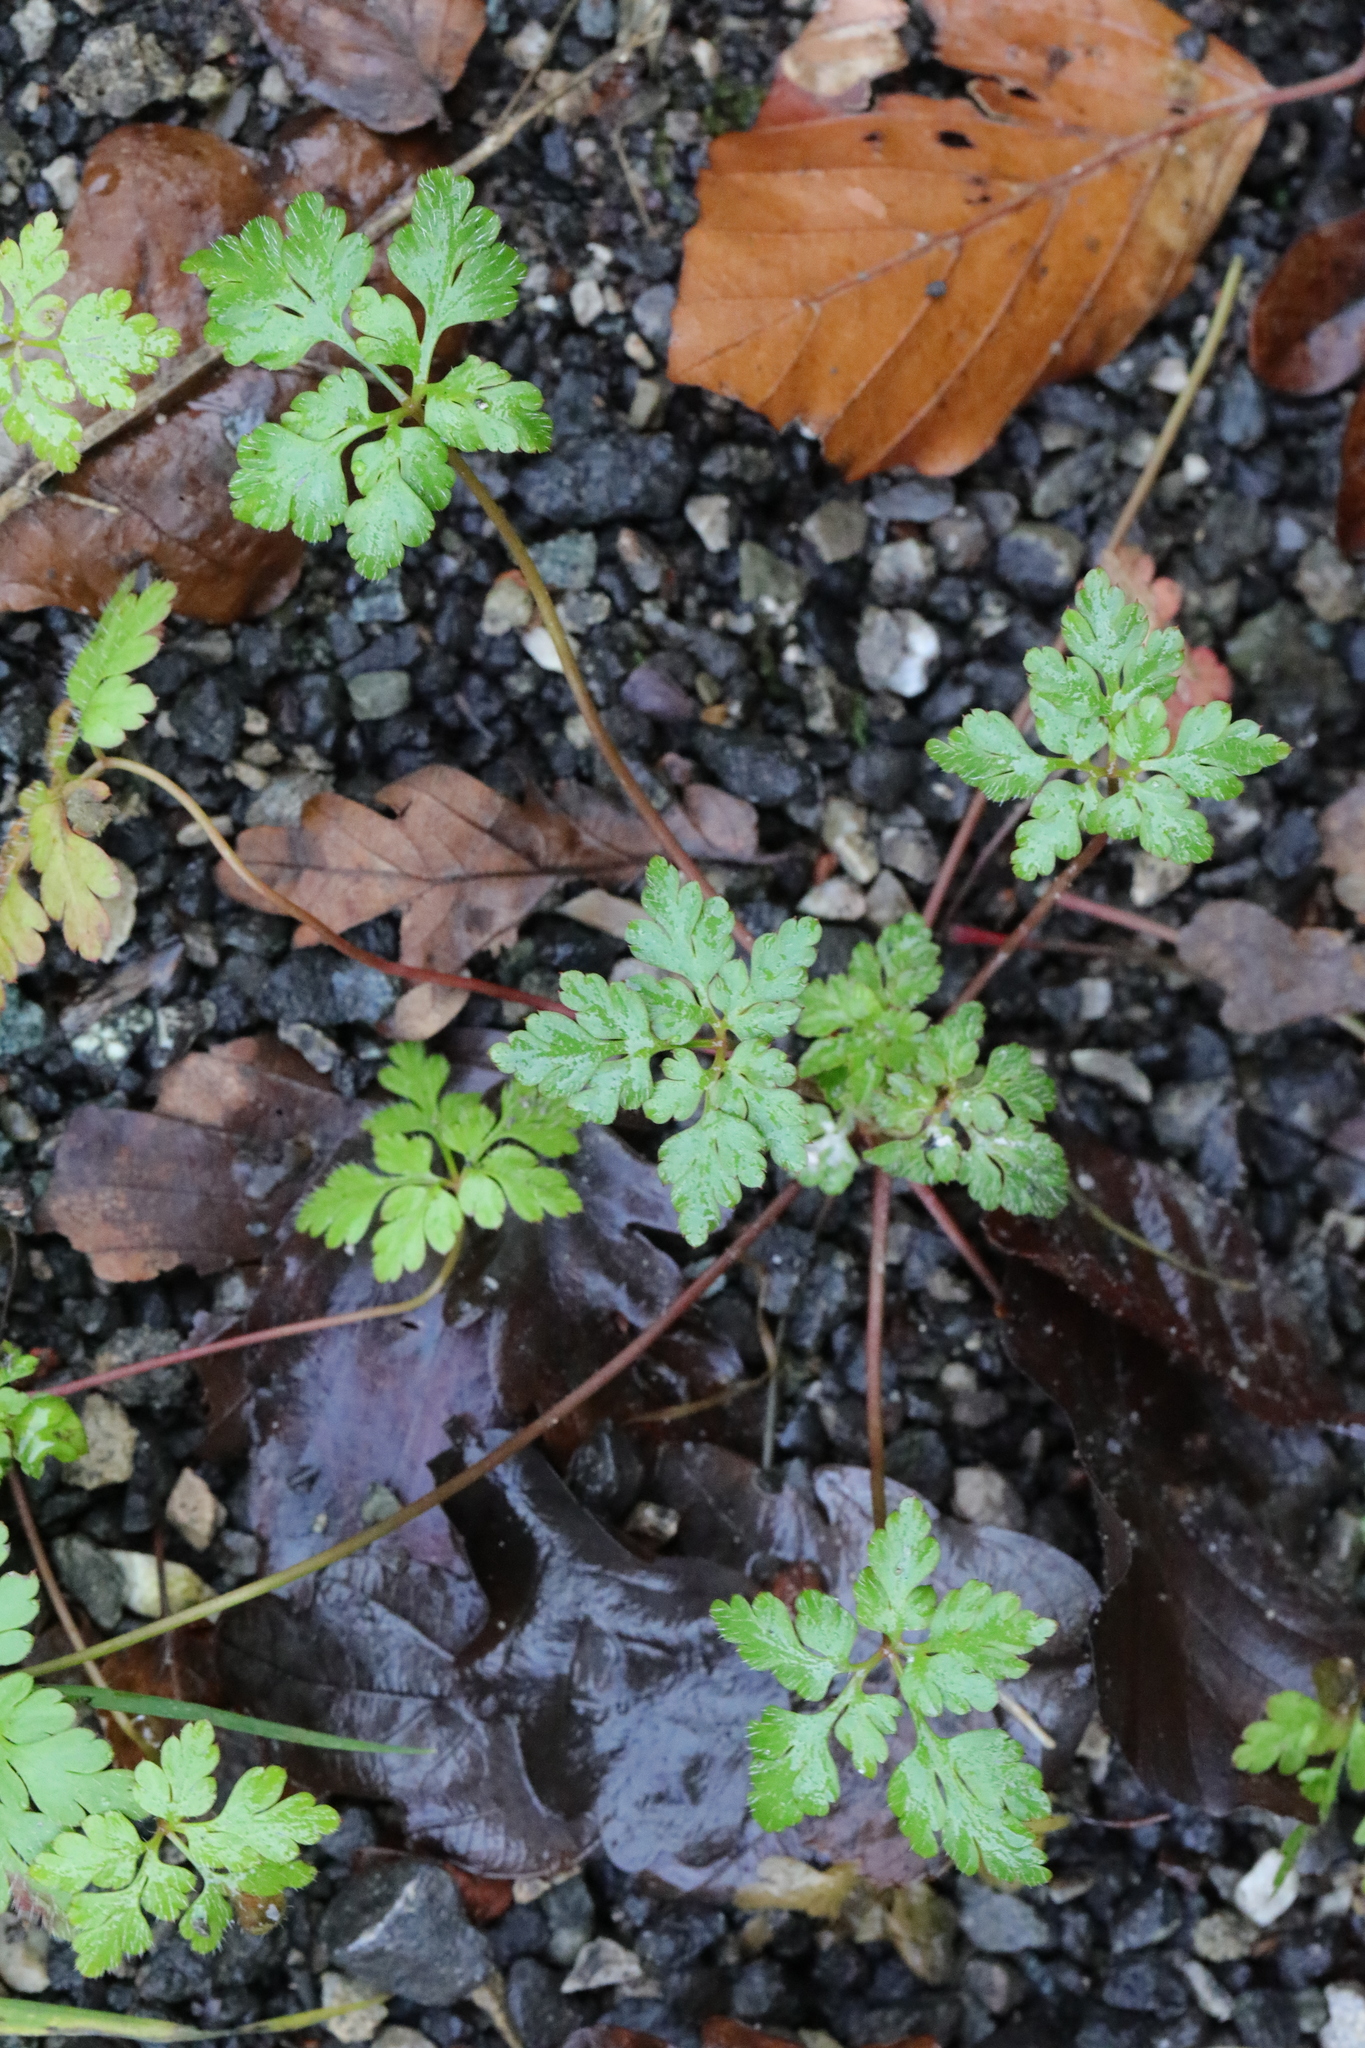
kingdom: Plantae
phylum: Tracheophyta
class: Magnoliopsida
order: Geraniales
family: Geraniaceae
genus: Geranium
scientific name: Geranium robertianum
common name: Herb-robert
